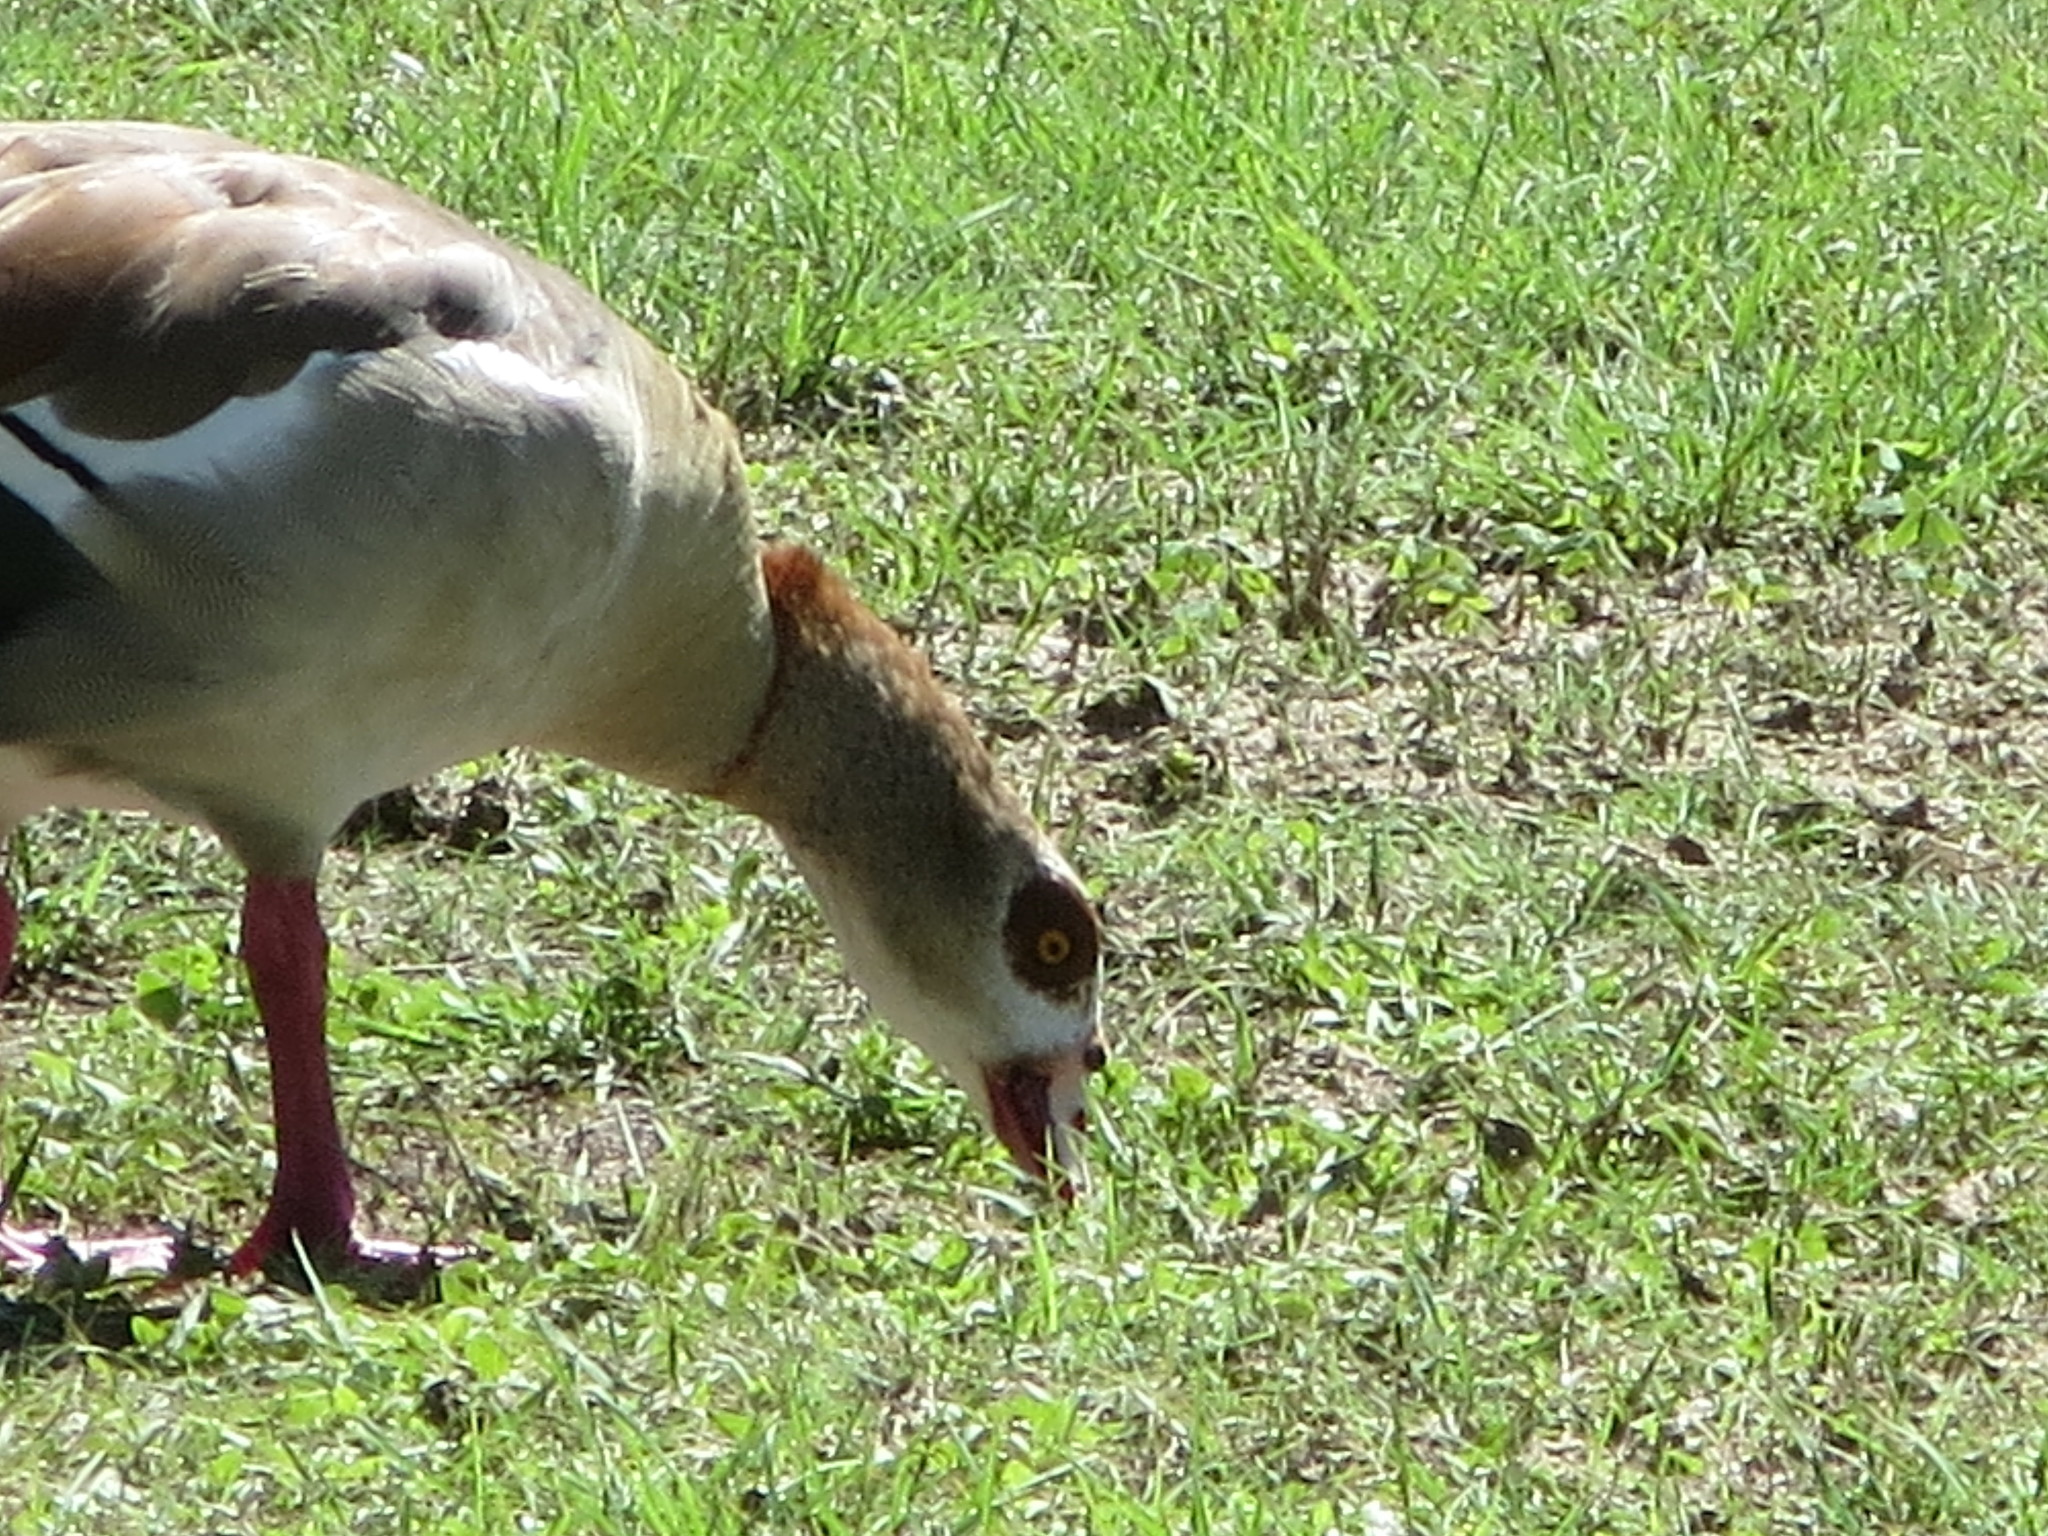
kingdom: Animalia
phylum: Chordata
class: Aves
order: Anseriformes
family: Anatidae
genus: Alopochen
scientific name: Alopochen aegyptiaca
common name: Egyptian goose
